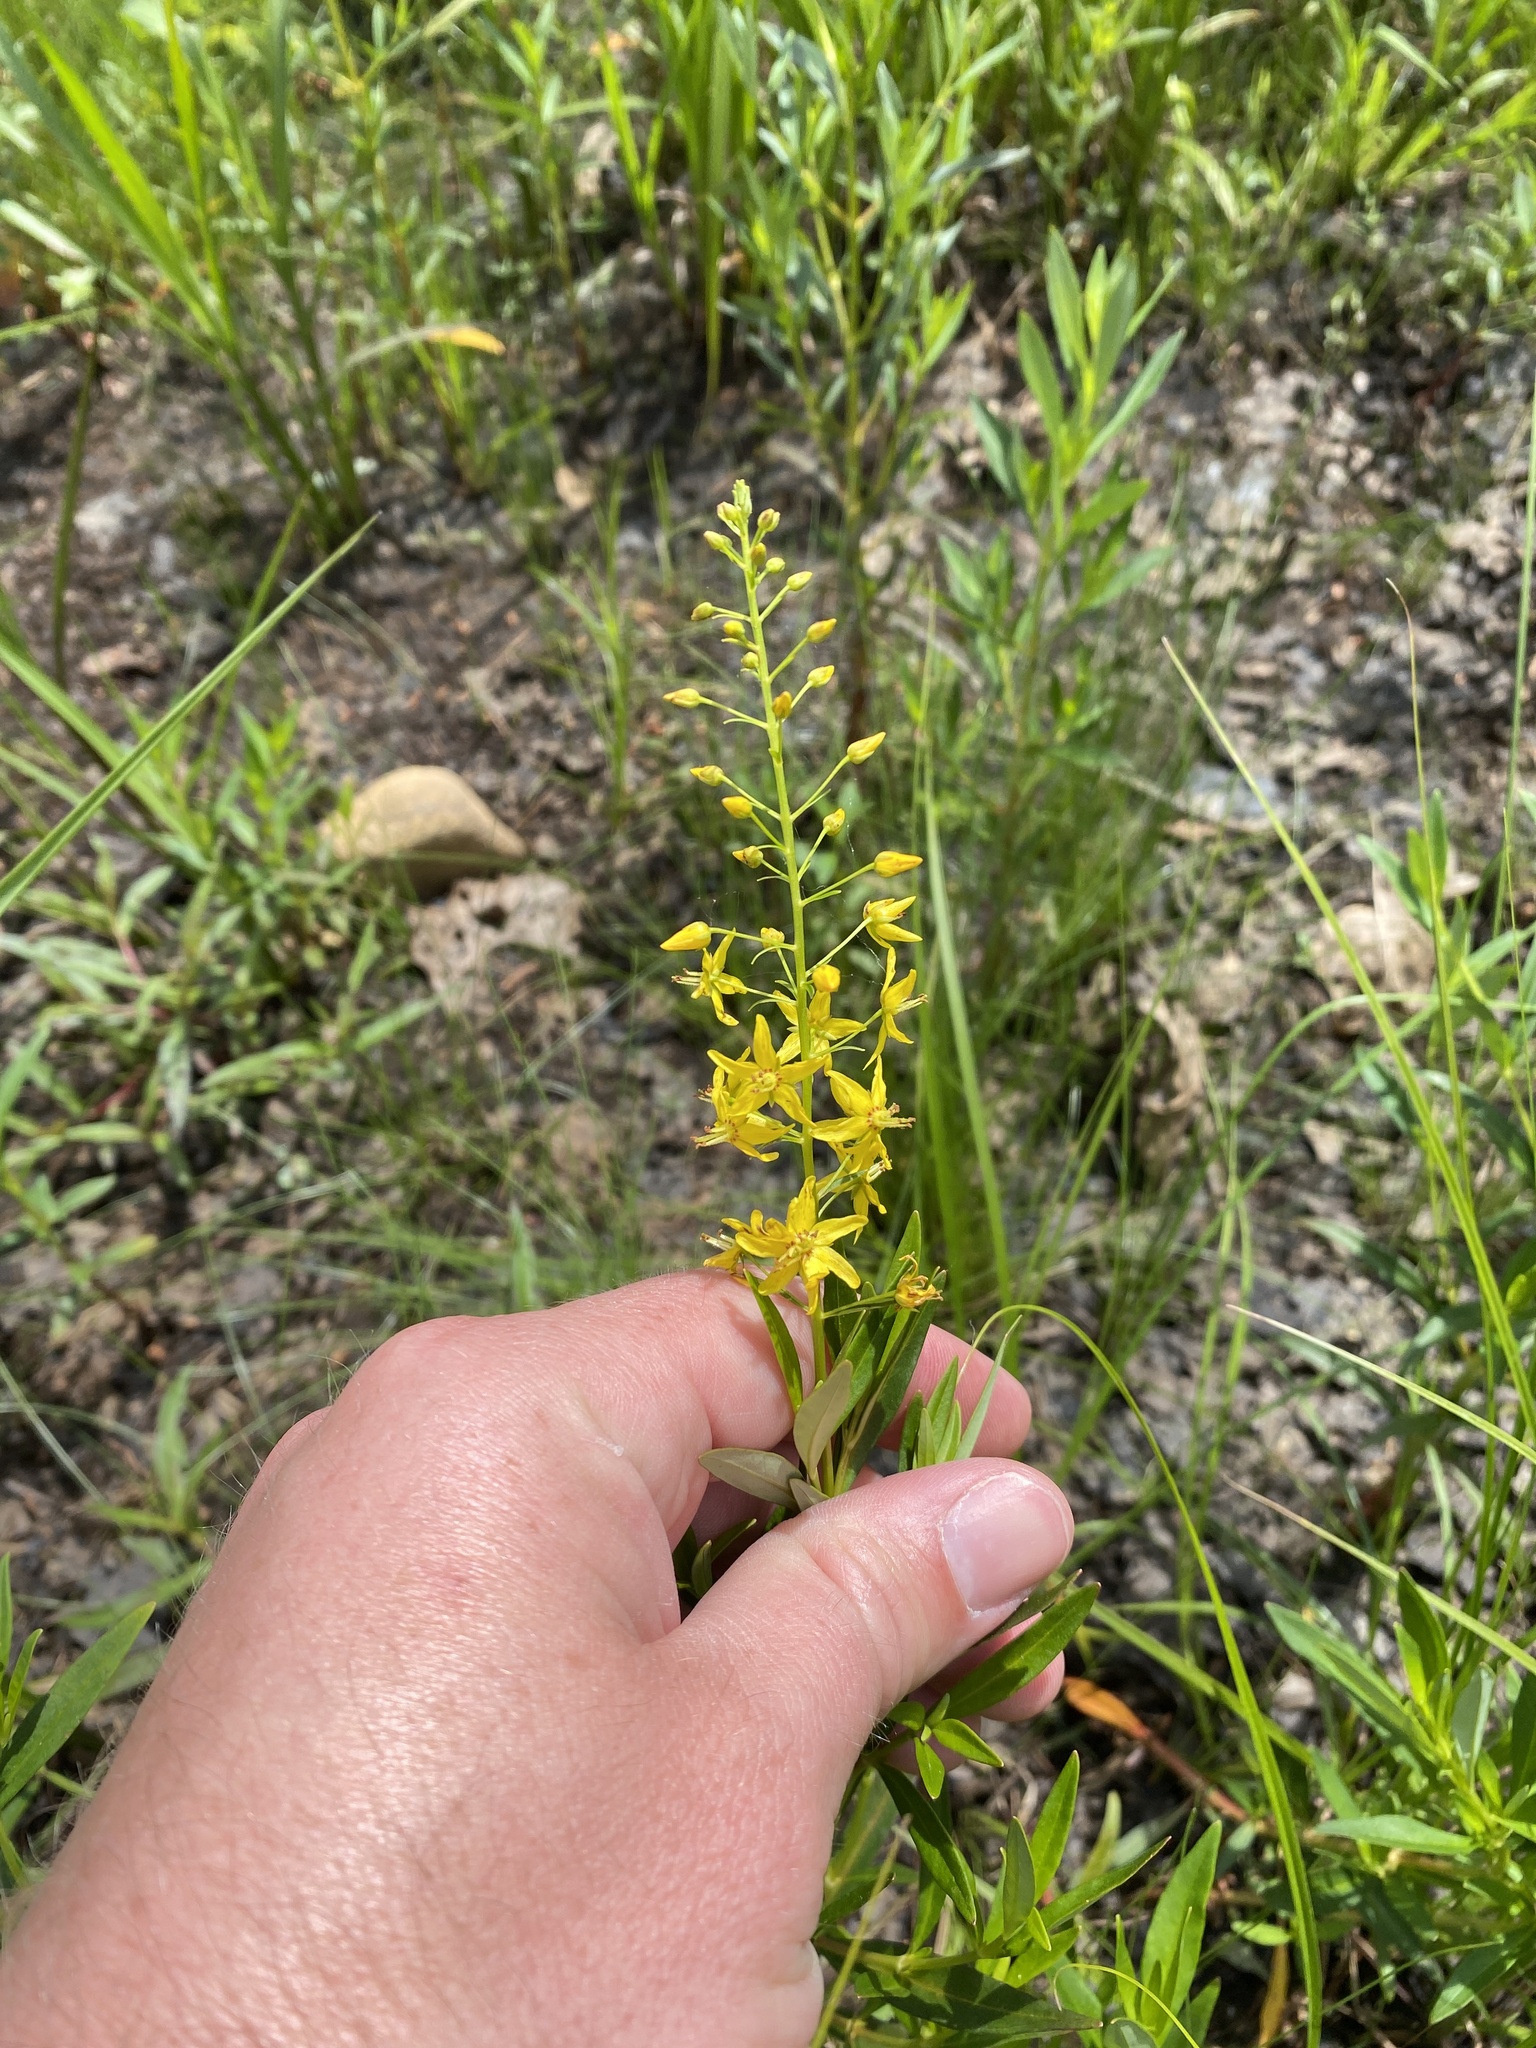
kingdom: Plantae
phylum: Tracheophyta
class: Magnoliopsida
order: Ericales
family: Primulaceae
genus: Lysimachia
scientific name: Lysimachia terrestris
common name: Lake loosestrife
